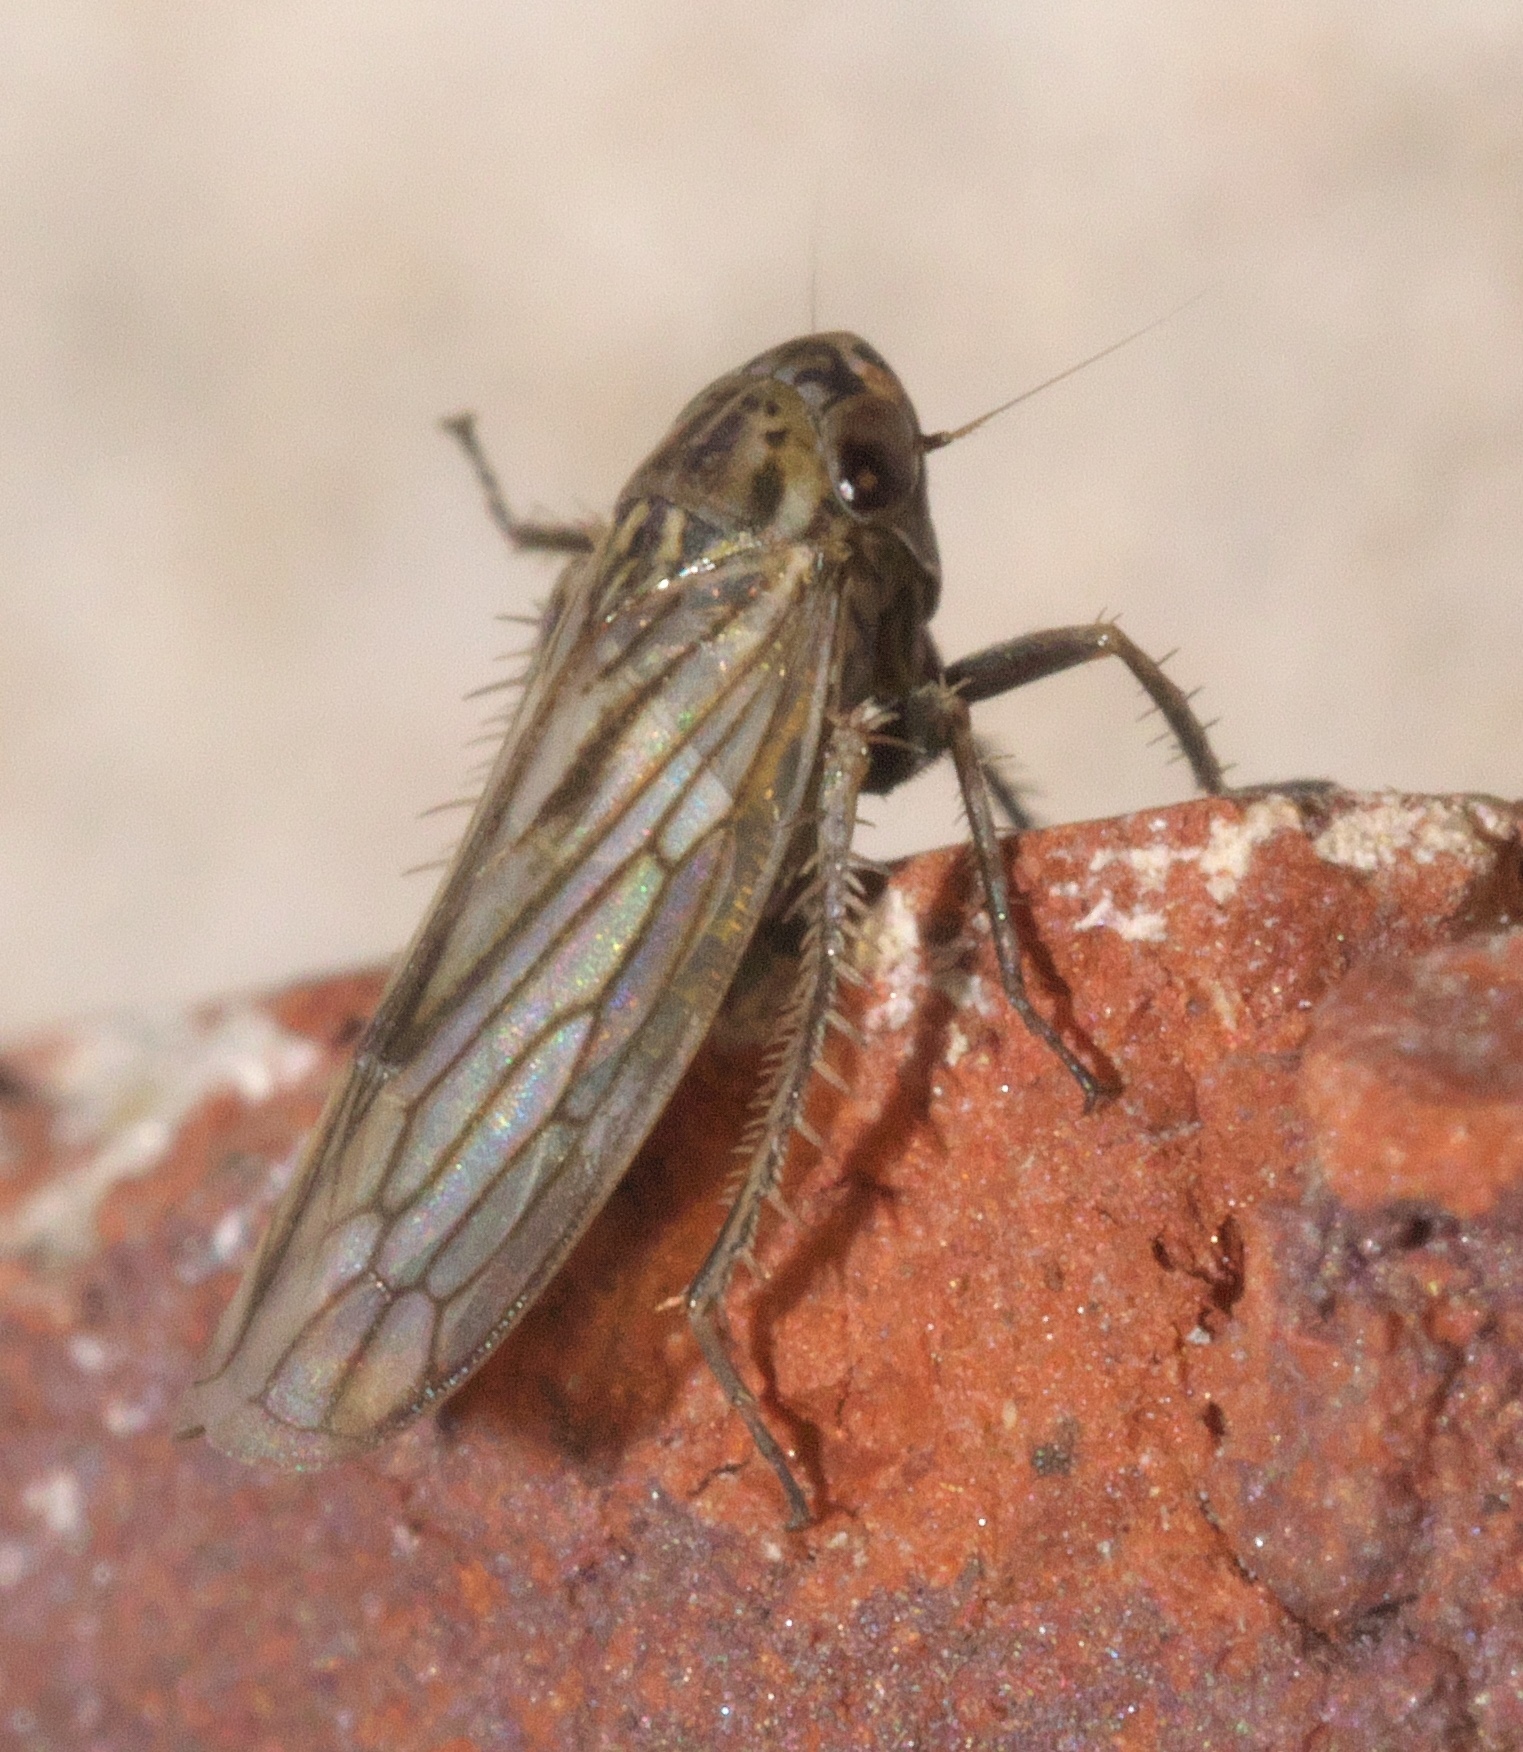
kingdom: Animalia
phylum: Arthropoda
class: Insecta
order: Hemiptera
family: Cicadellidae
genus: Exitianus
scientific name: Exitianus exitiosus
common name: Gray lawn leafhopper
